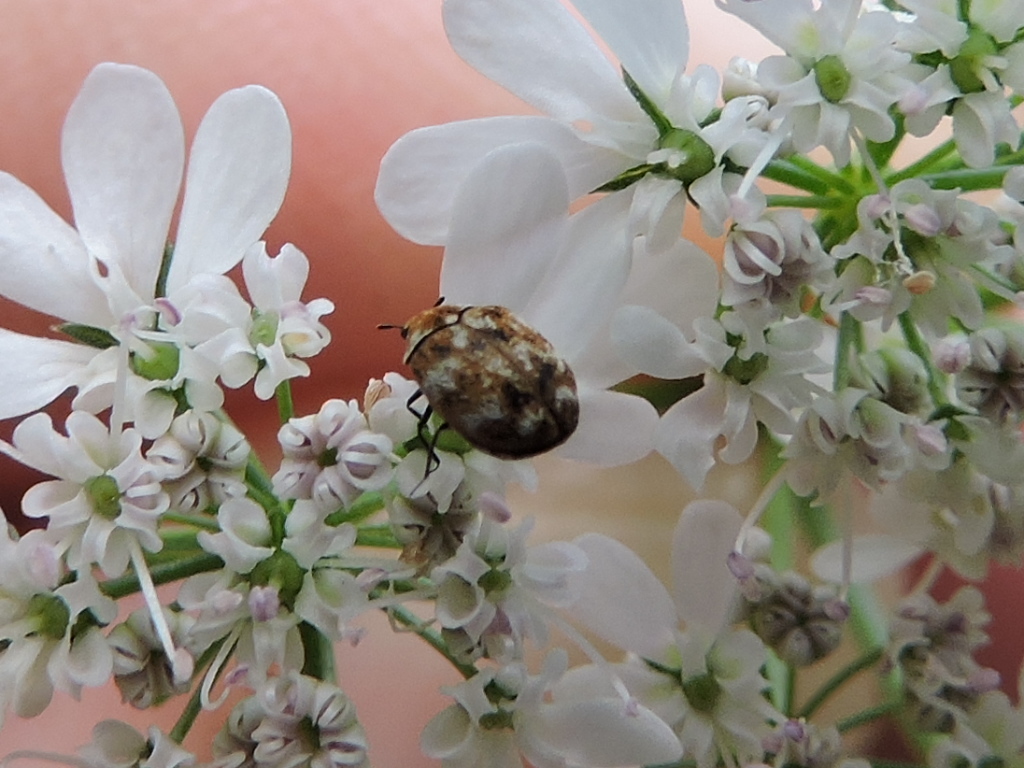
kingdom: Animalia
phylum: Arthropoda
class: Insecta
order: Coleoptera
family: Dermestidae
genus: Anthrenus
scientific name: Anthrenus verbasci
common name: Varied carpet beetle
